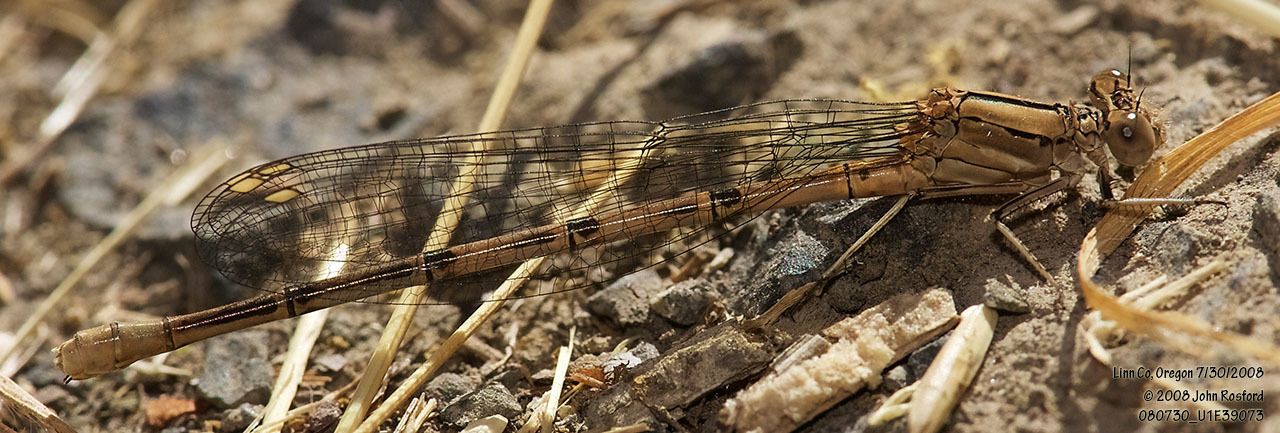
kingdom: Animalia
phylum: Arthropoda
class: Insecta
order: Odonata
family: Coenagrionidae
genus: Argia
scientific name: Argia emma
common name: Emma's dancer
